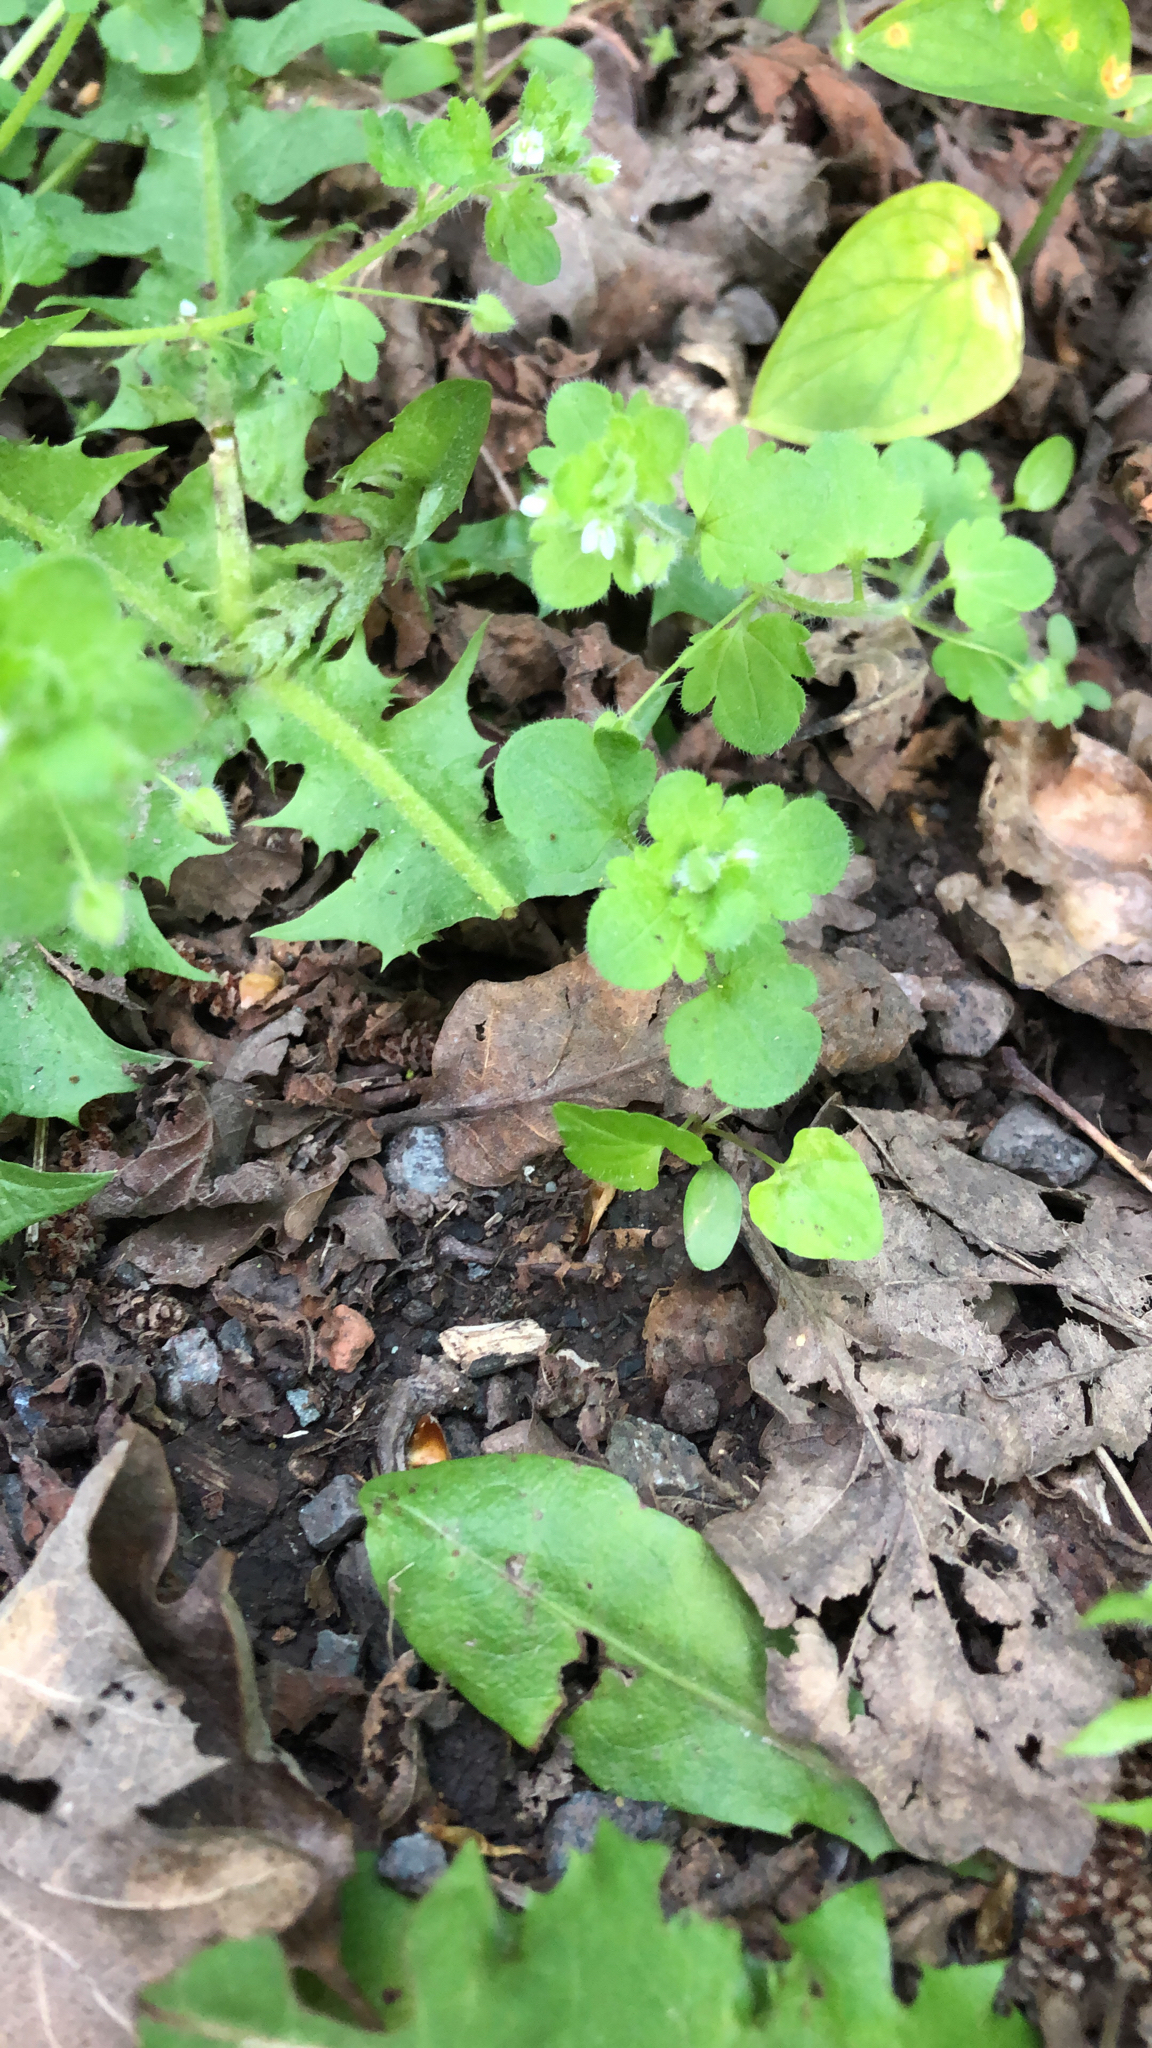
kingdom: Plantae
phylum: Tracheophyta
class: Magnoliopsida
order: Lamiales
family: Plantaginaceae
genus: Veronica
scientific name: Veronica hederifolia
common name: Ivy-leaved speedwell
